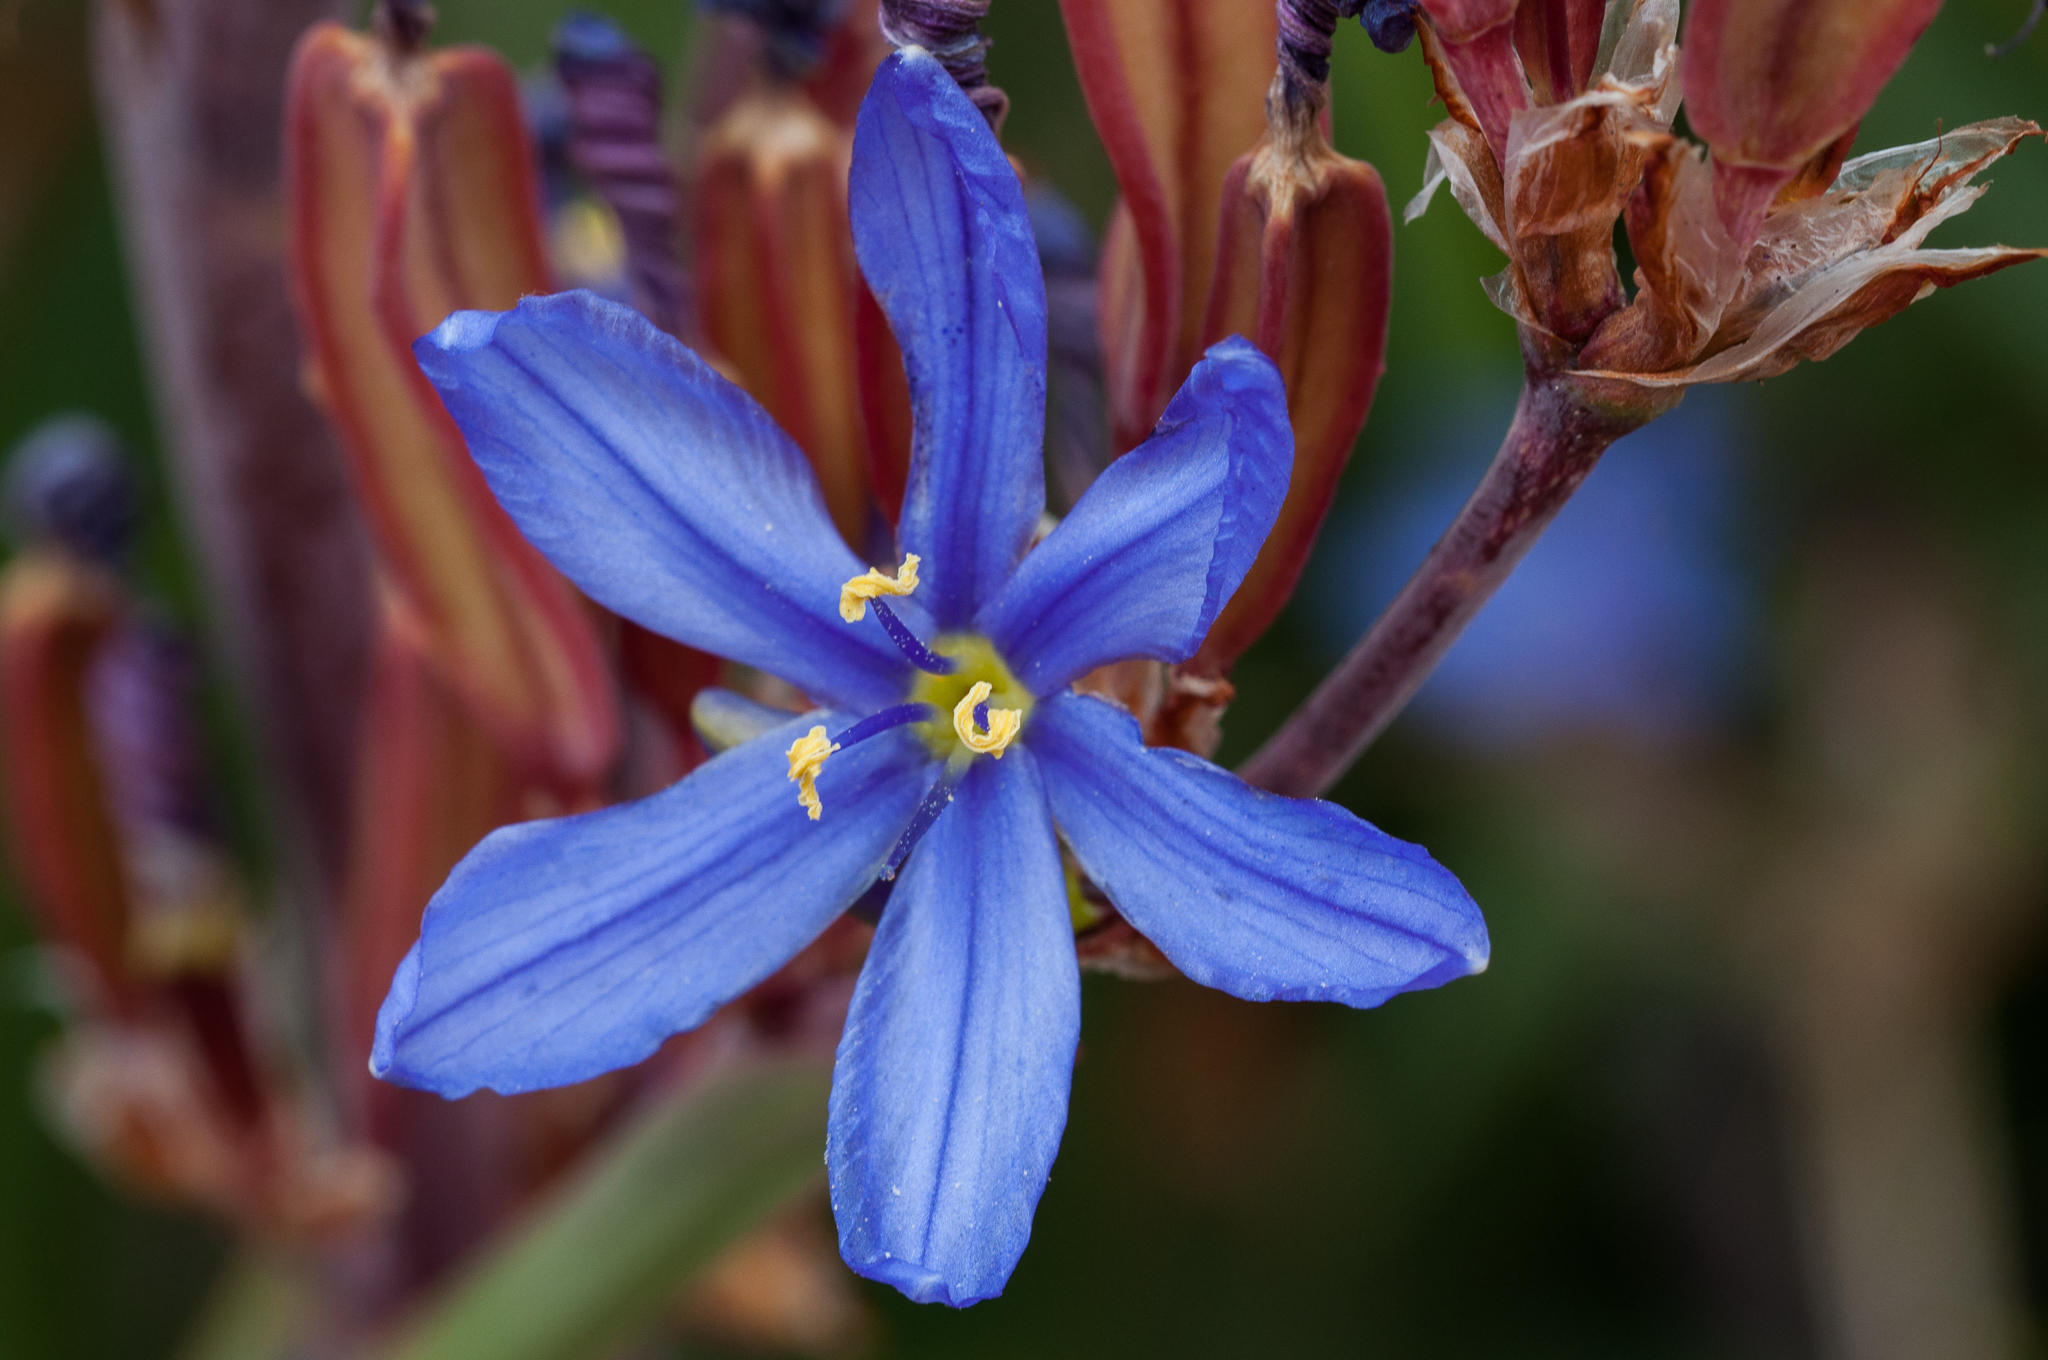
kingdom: Plantae
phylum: Tracheophyta
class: Liliopsida
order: Asparagales
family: Iridaceae
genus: Aristea
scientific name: Aristea capitata
